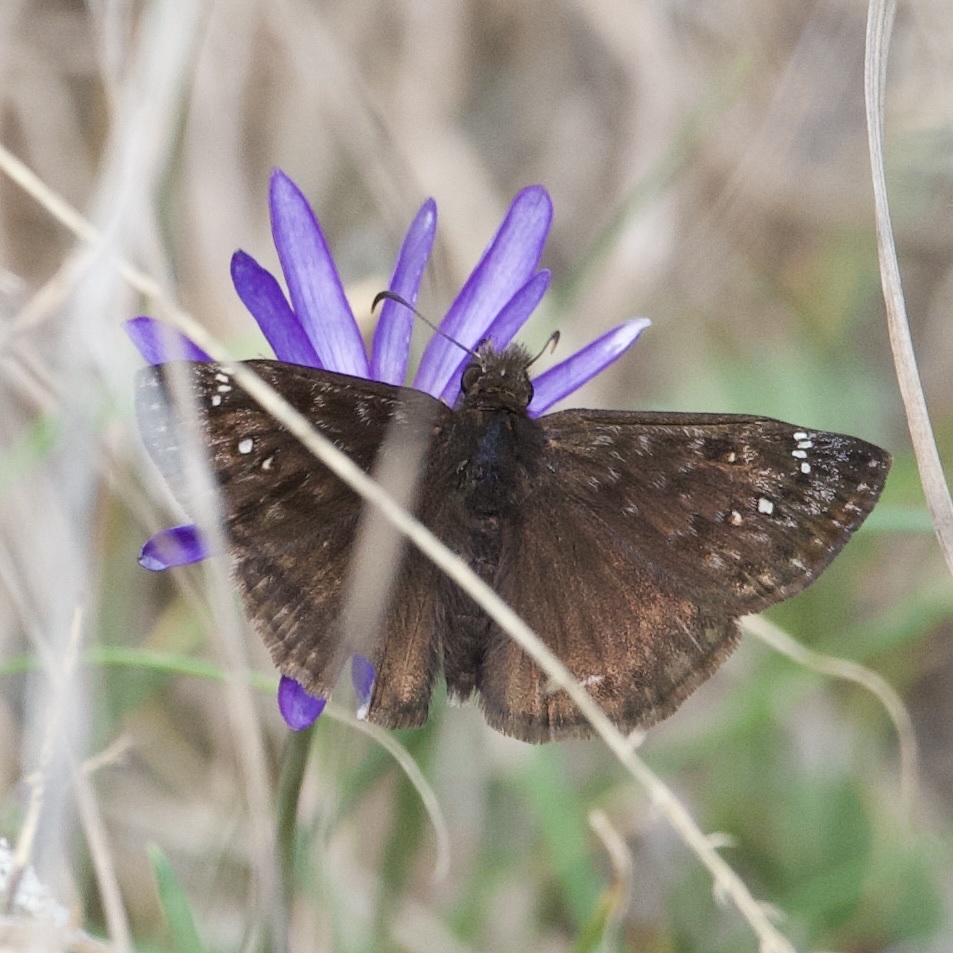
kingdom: Animalia
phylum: Arthropoda
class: Insecta
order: Lepidoptera
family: Hesperiidae
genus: Erynnis
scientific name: Erynnis horatius
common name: Horace's duskywing
